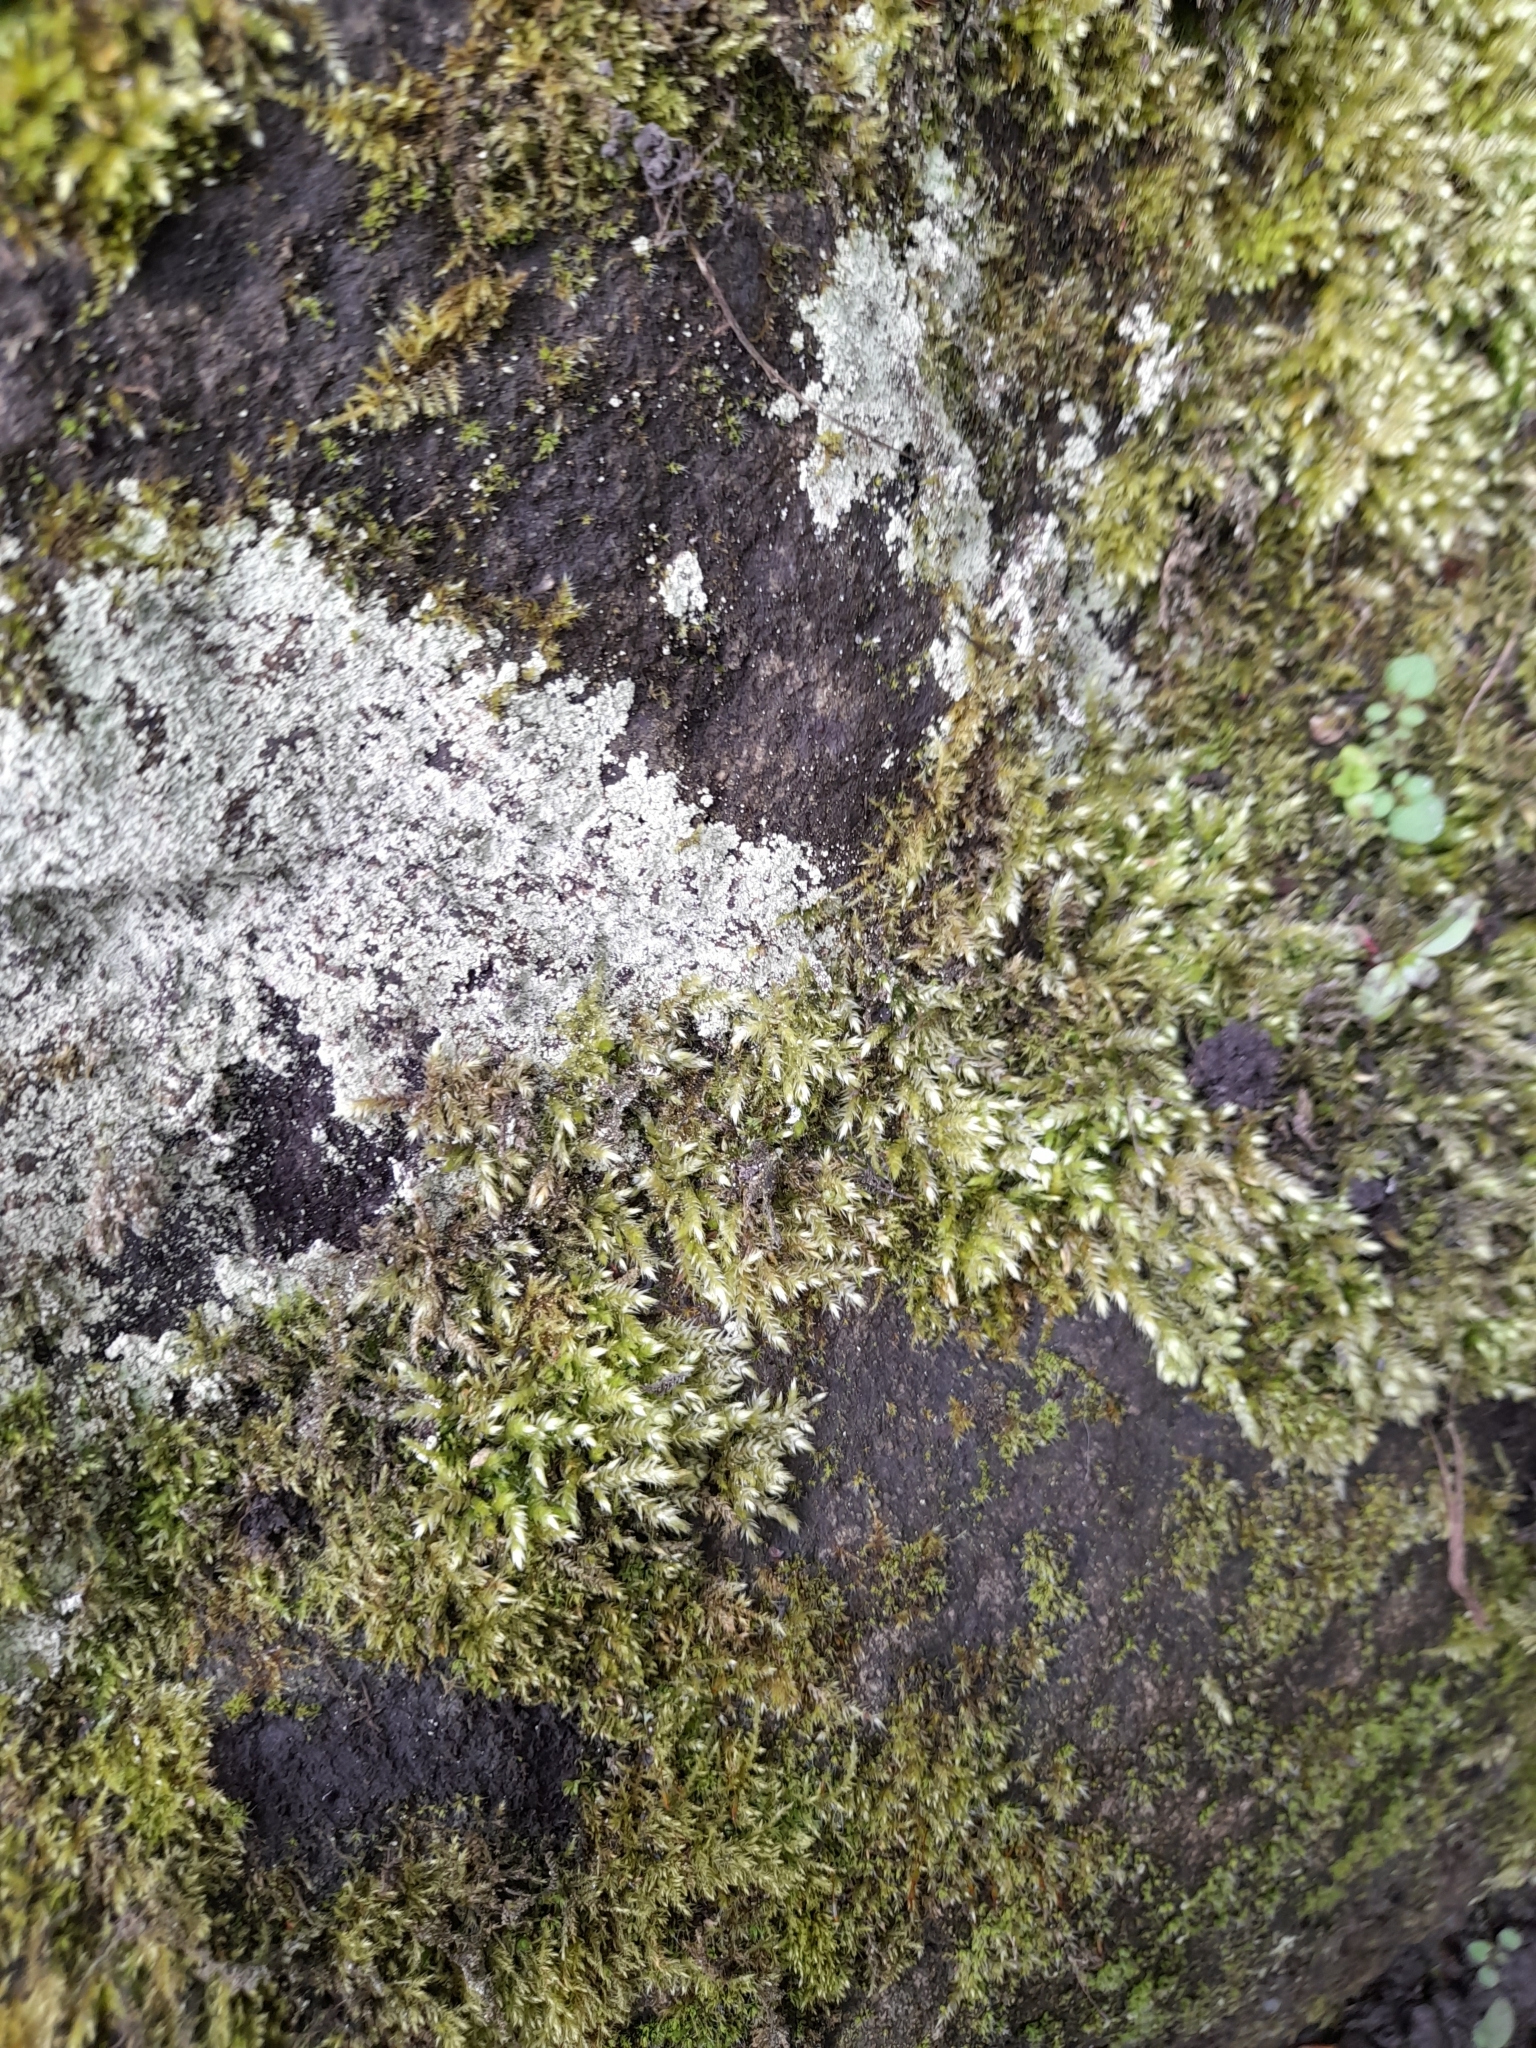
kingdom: Fungi
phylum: Ascomycota
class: Lecanoromycetes
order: Lecanorales
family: Lecanoraceae
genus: Protoparmeliopsis
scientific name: Protoparmeliopsis muralis
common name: Stonewall rim lichen
